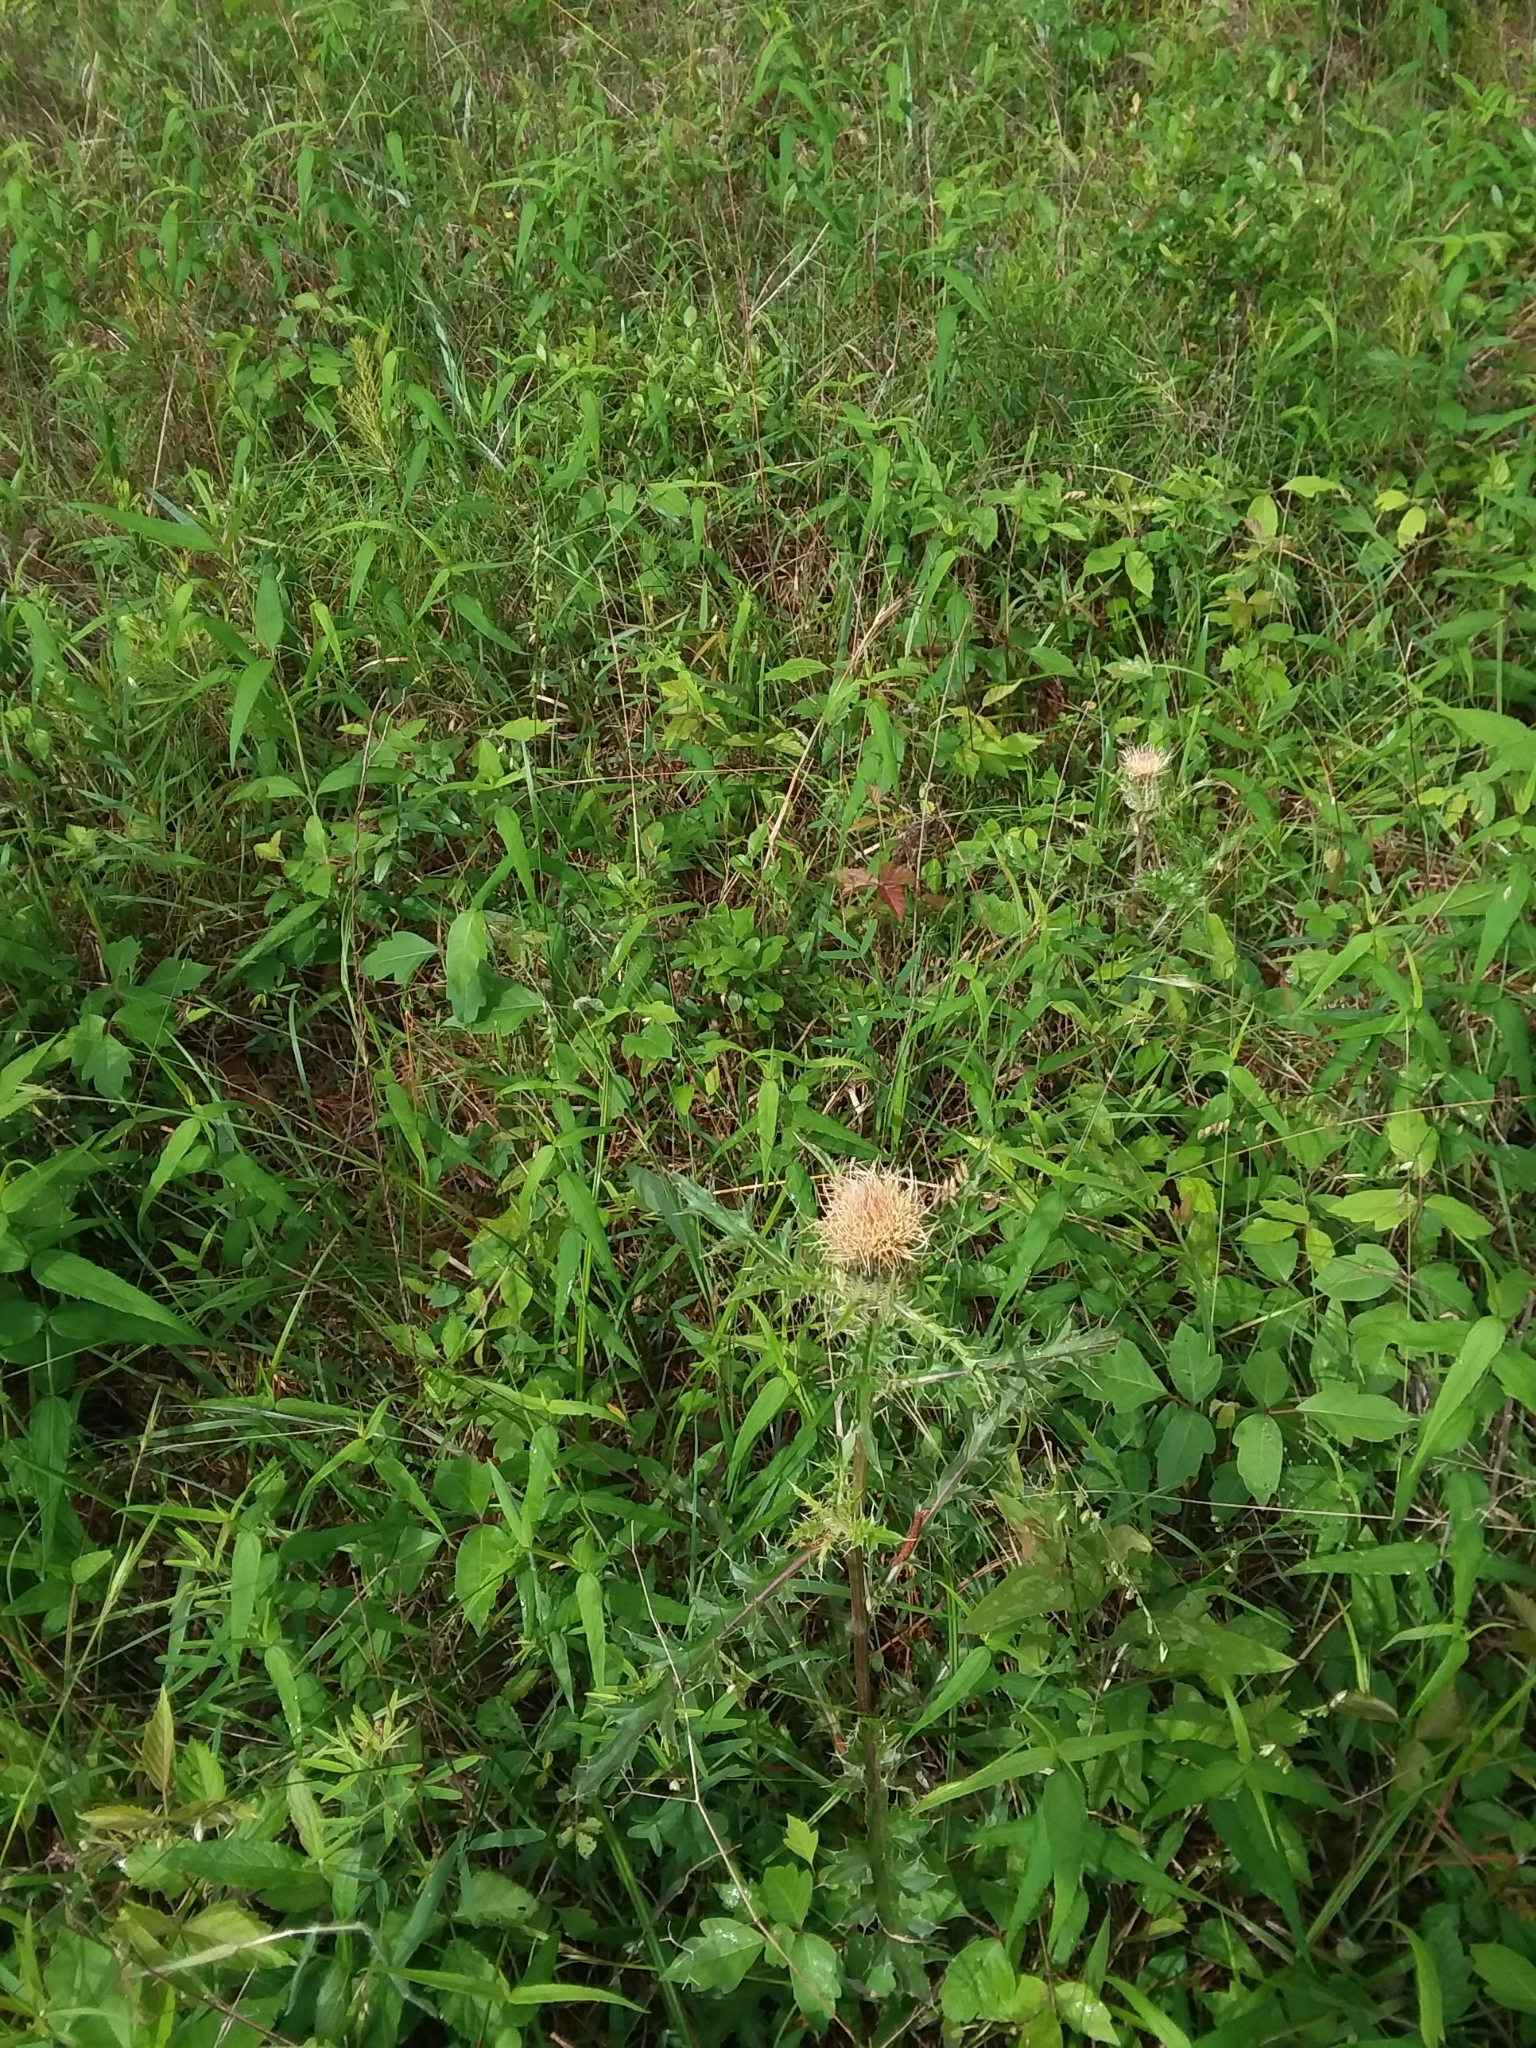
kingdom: Plantae
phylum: Tracheophyta
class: Magnoliopsida
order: Asterales
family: Asteraceae
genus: Cirsium
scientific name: Cirsium horridulum
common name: Bristly thistle
